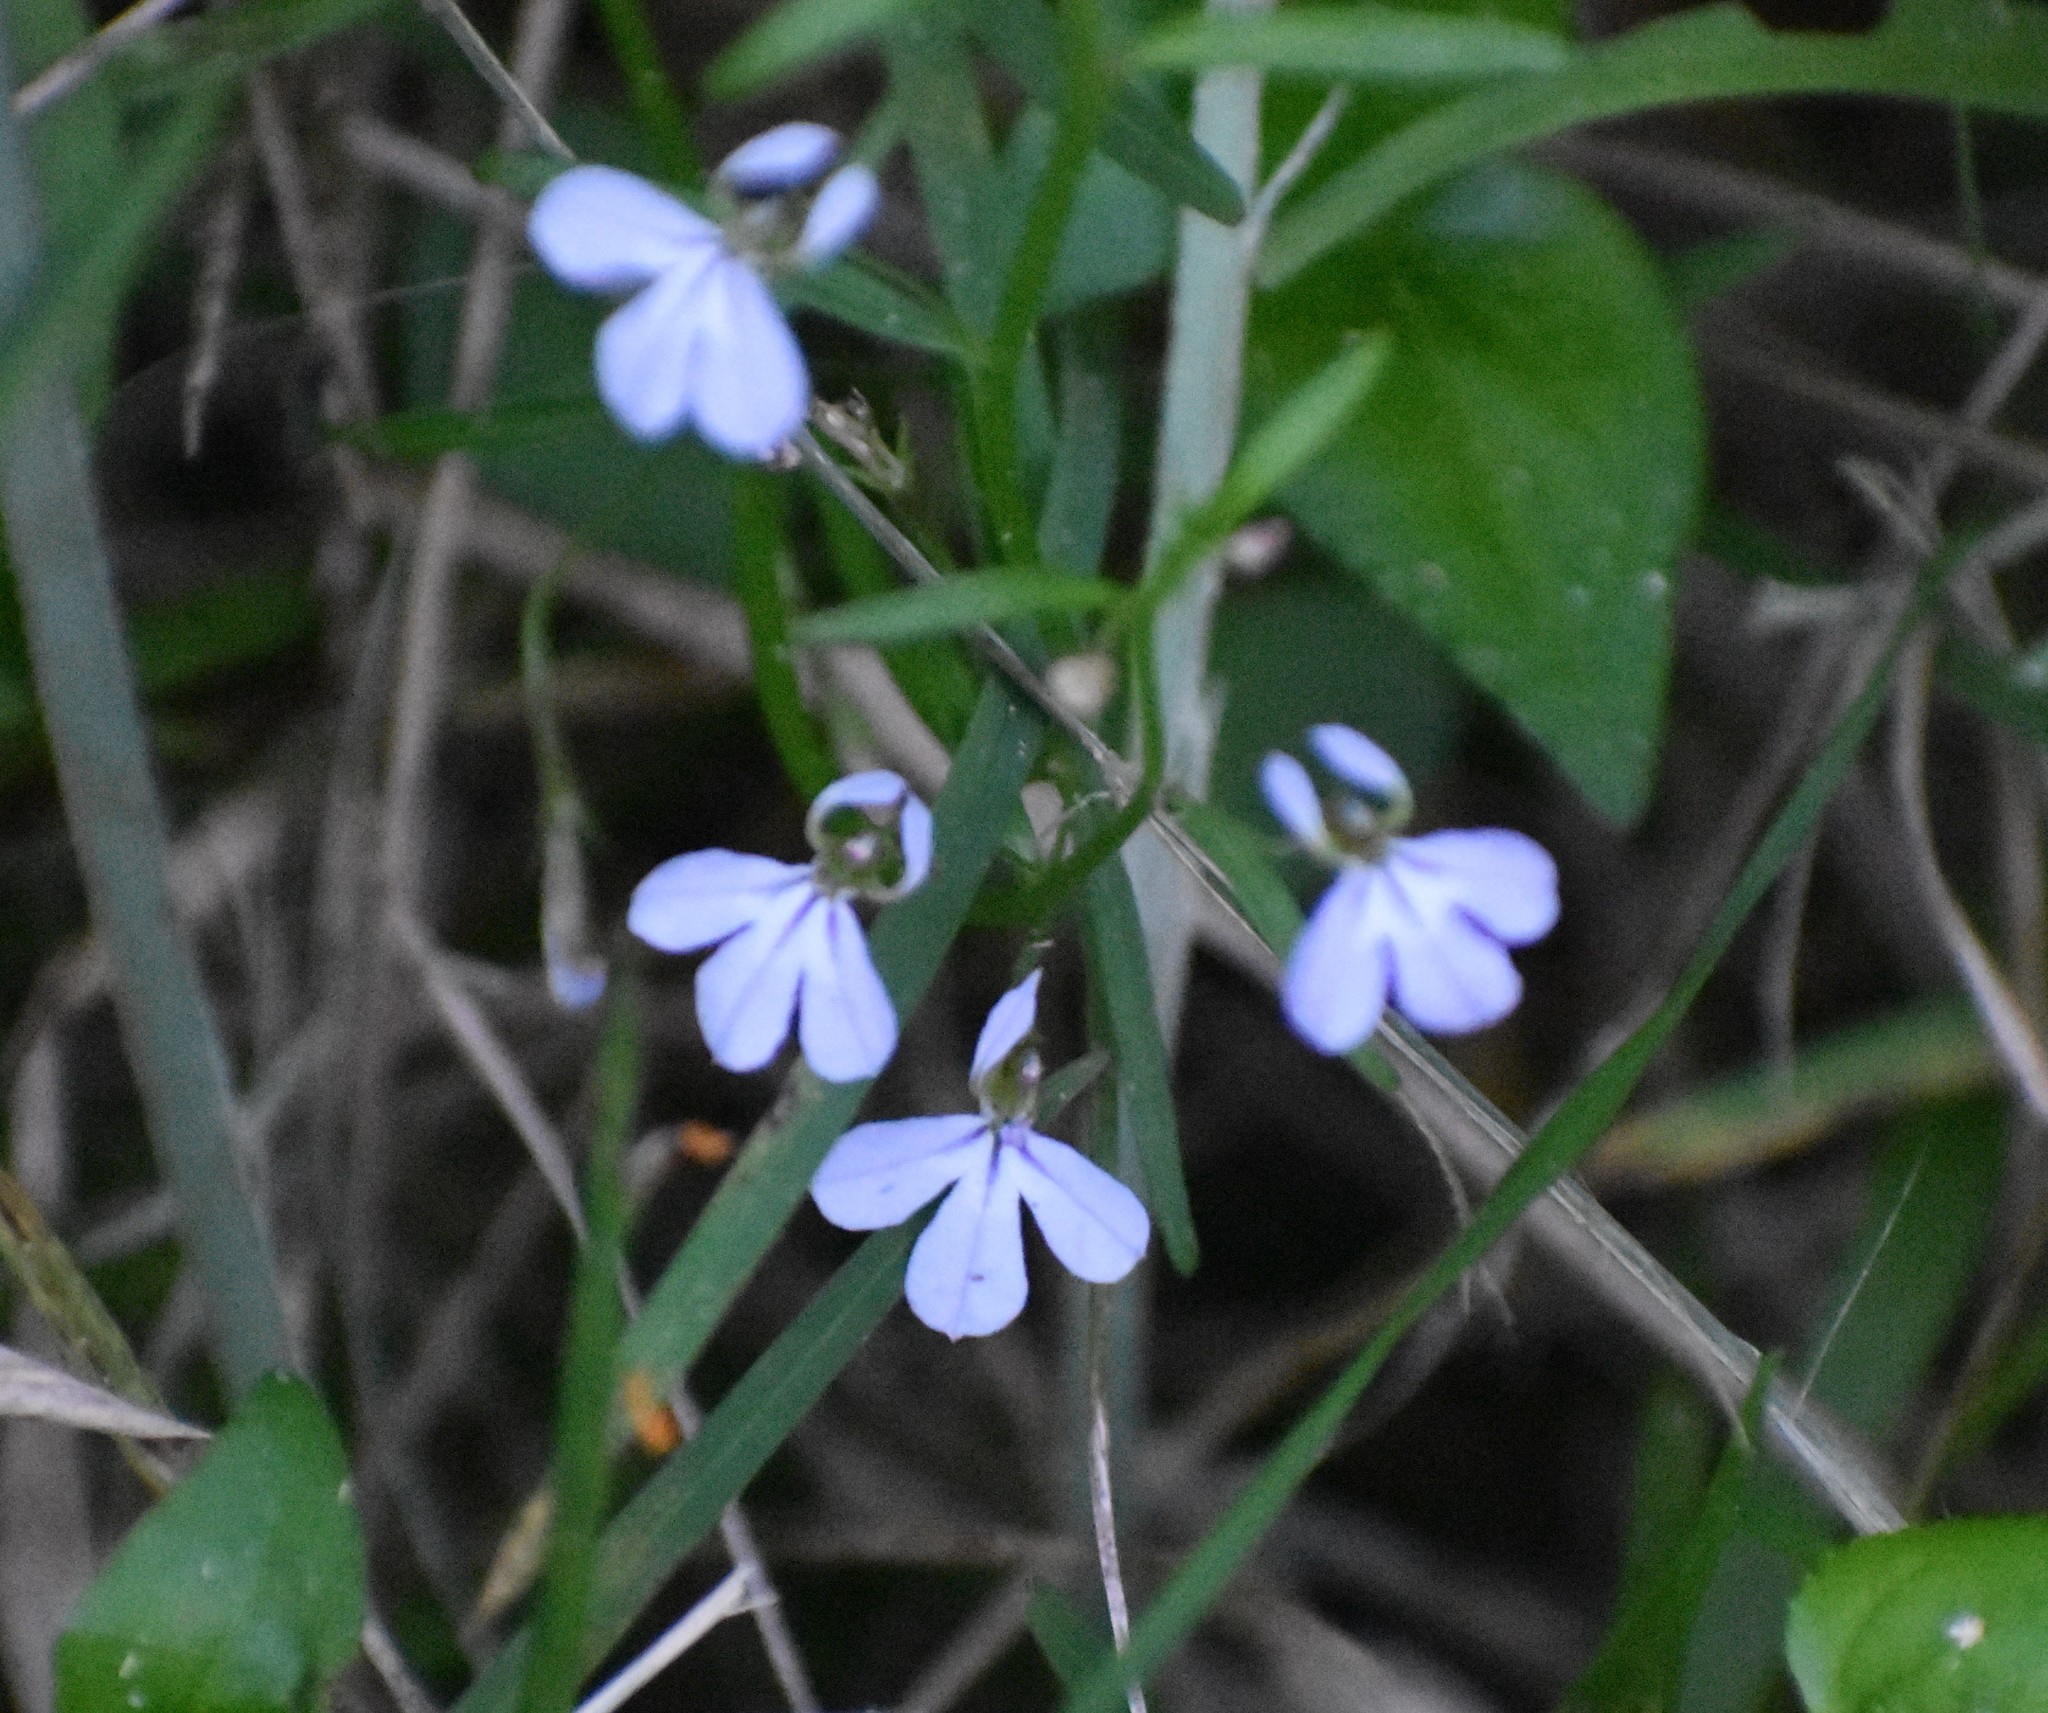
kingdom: Plantae
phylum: Tracheophyta
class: Magnoliopsida
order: Asterales
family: Campanulaceae
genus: Lobelia
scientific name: Lobelia anceps
